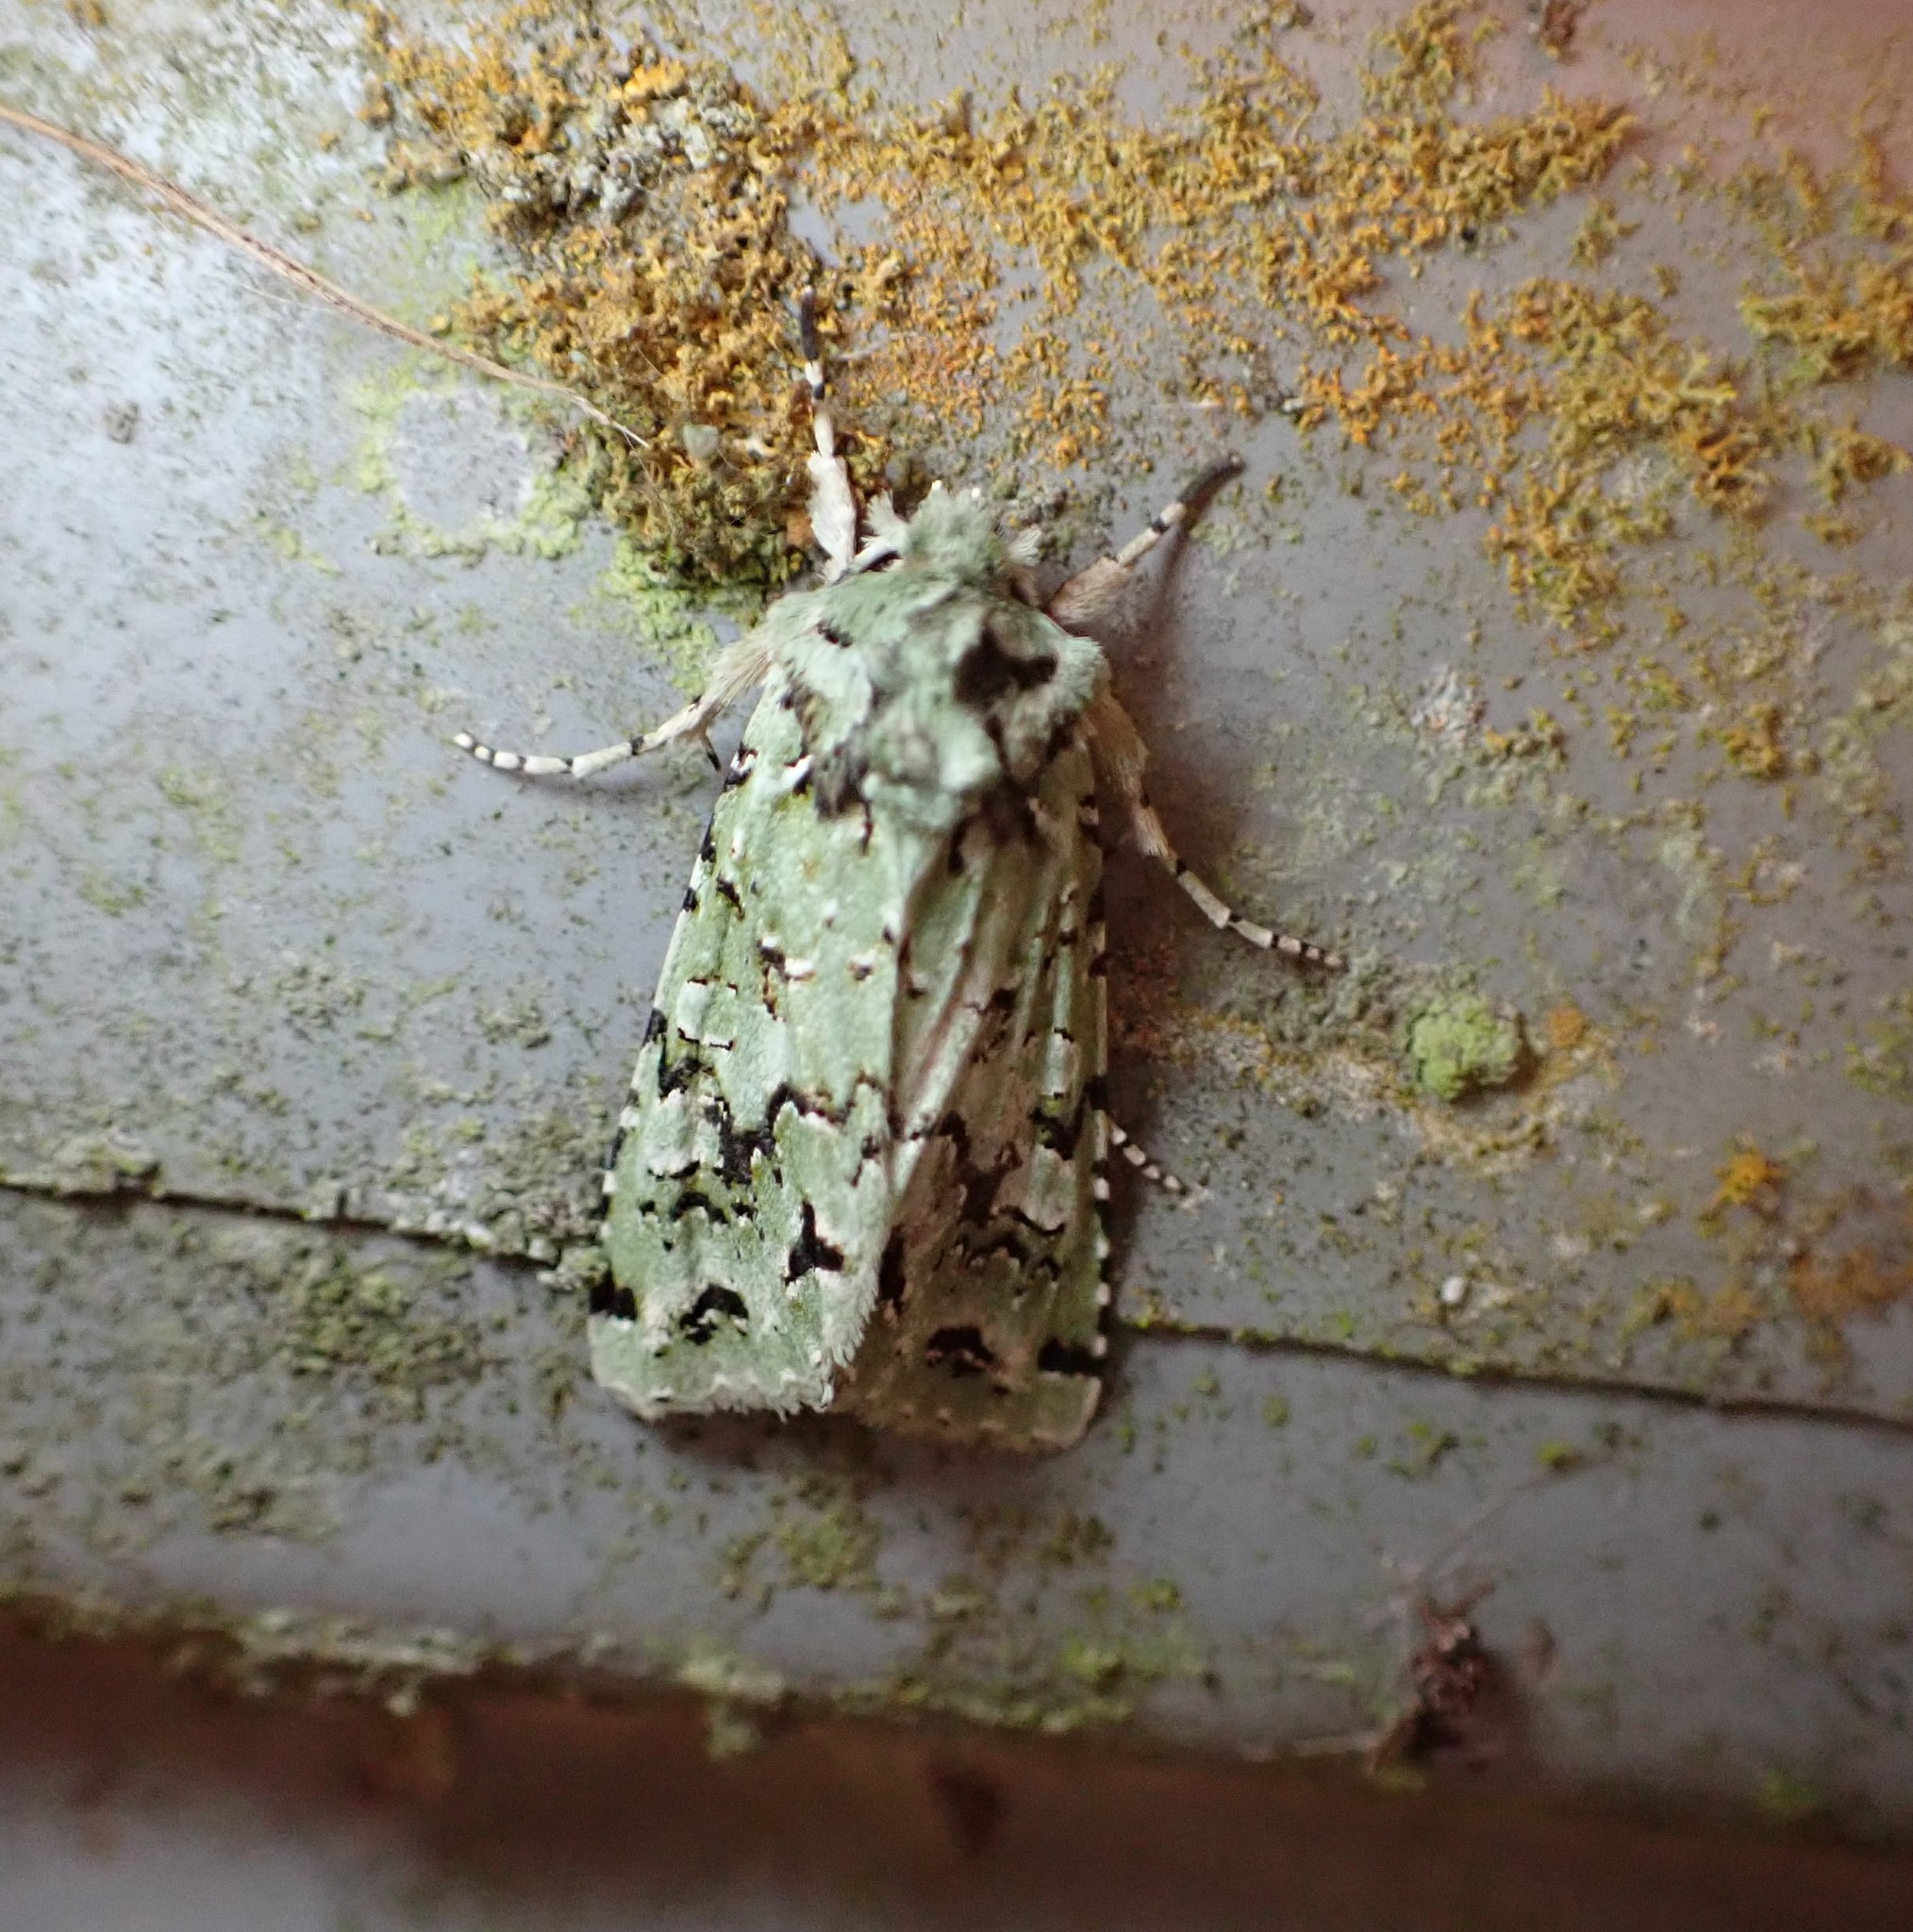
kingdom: Animalia
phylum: Arthropoda
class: Insecta
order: Lepidoptera
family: Noctuidae
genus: Meterana
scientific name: Meterana
